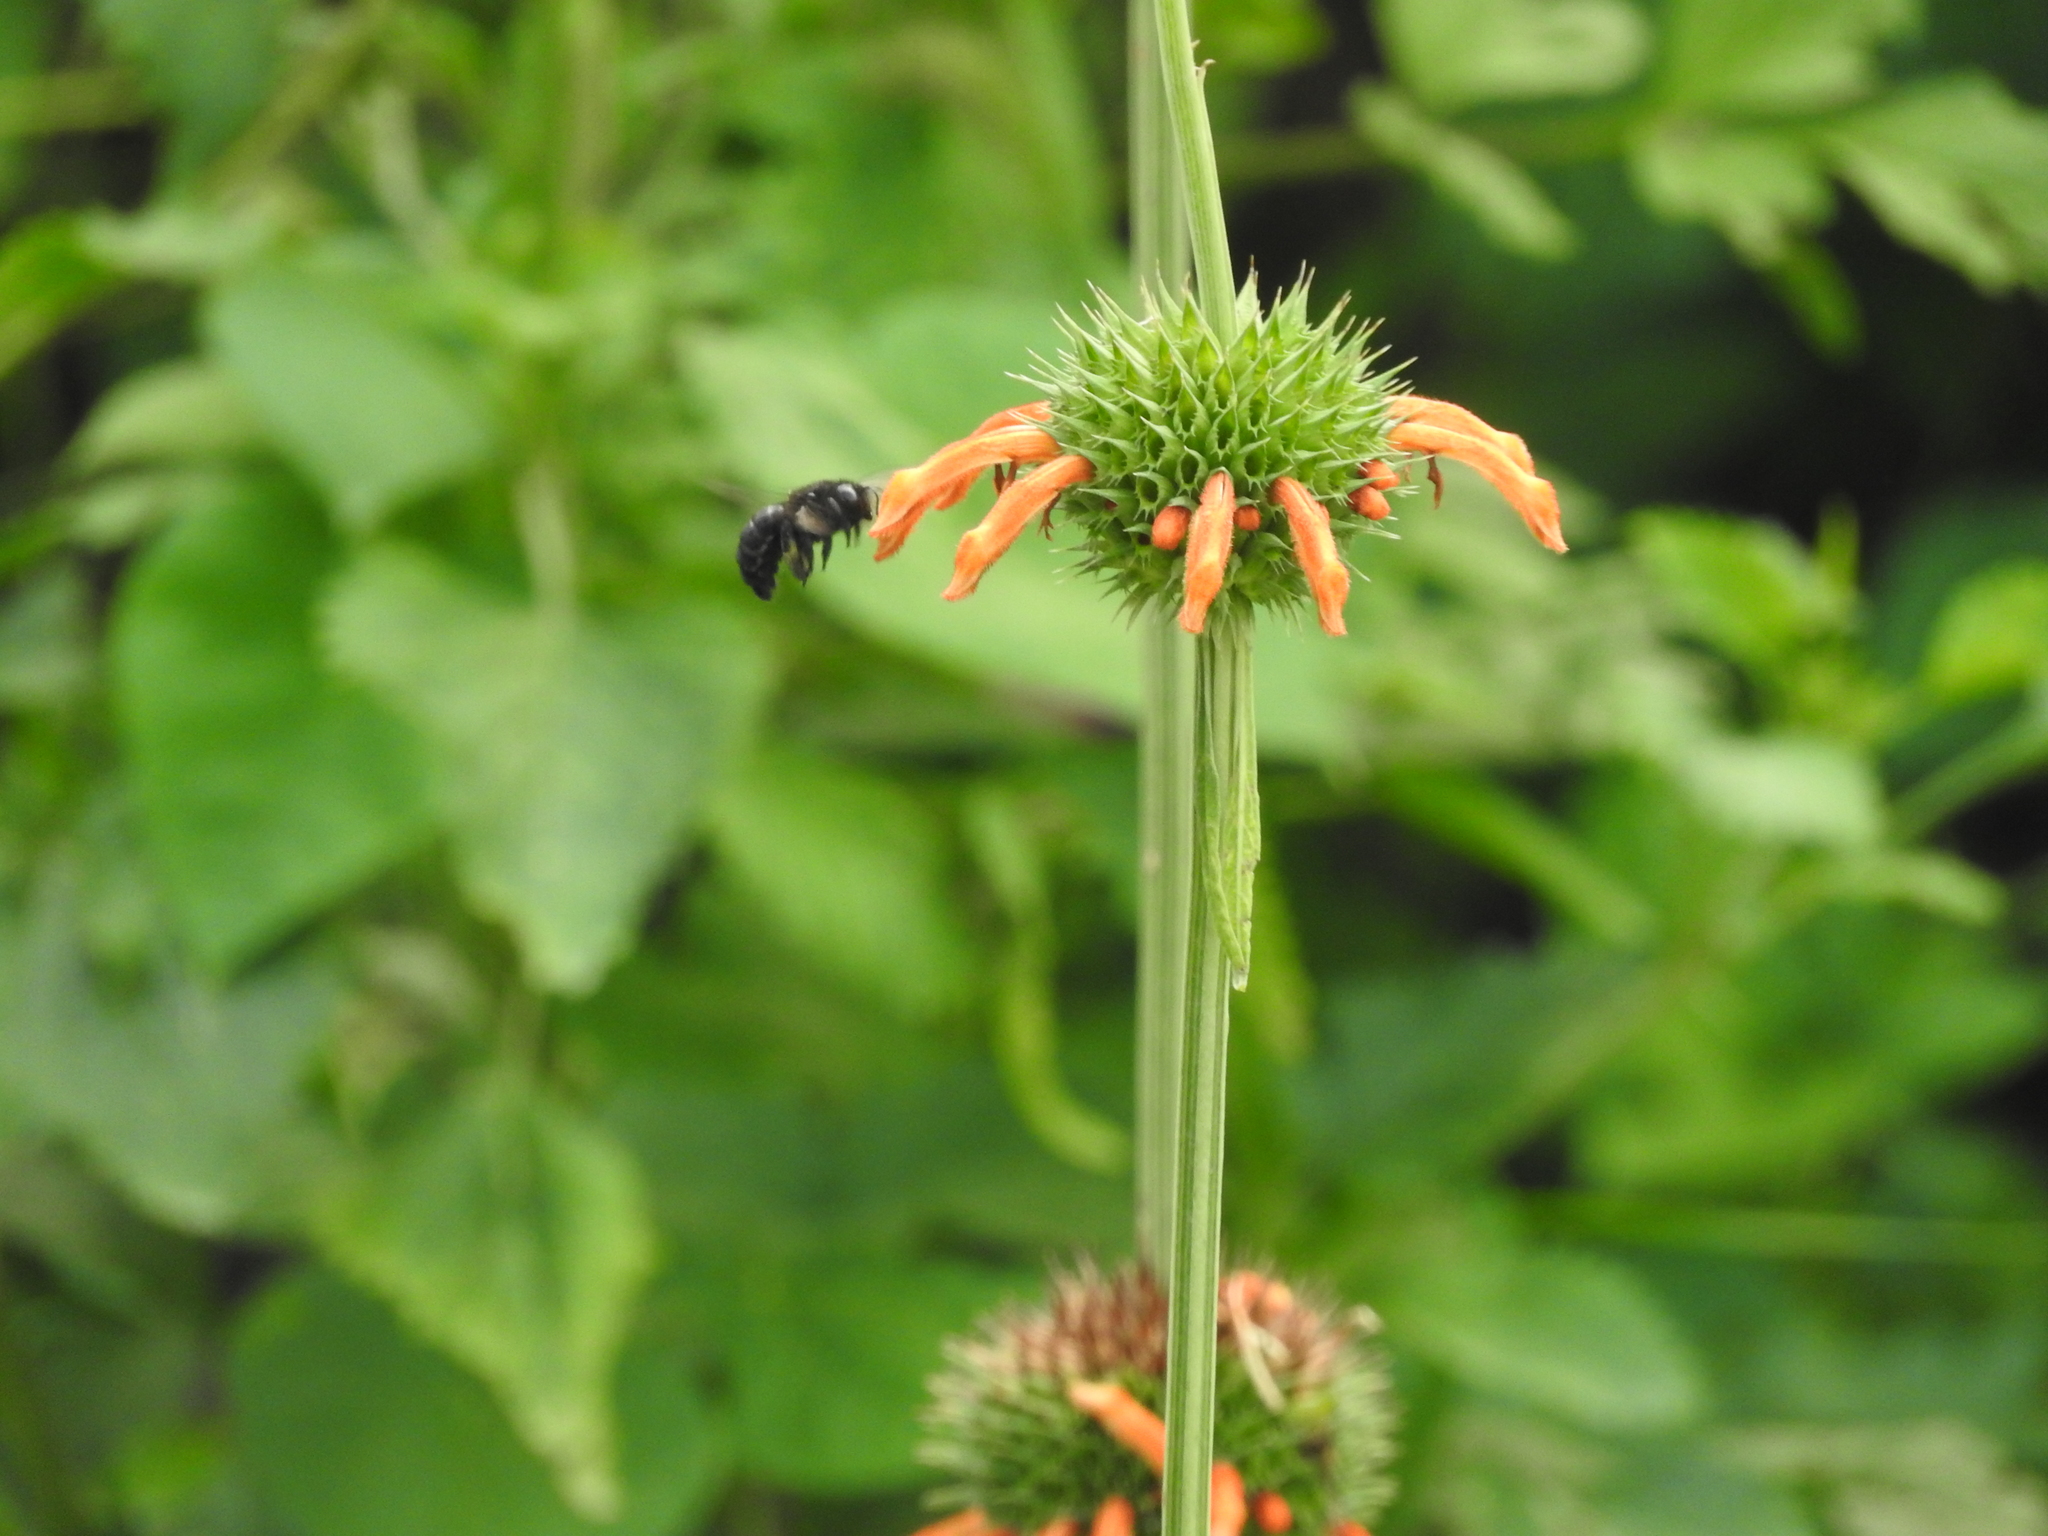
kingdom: Plantae
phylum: Tracheophyta
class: Magnoliopsida
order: Lamiales
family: Lamiaceae
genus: Leonotis
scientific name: Leonotis nepetifolia
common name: Christmas candlestick
